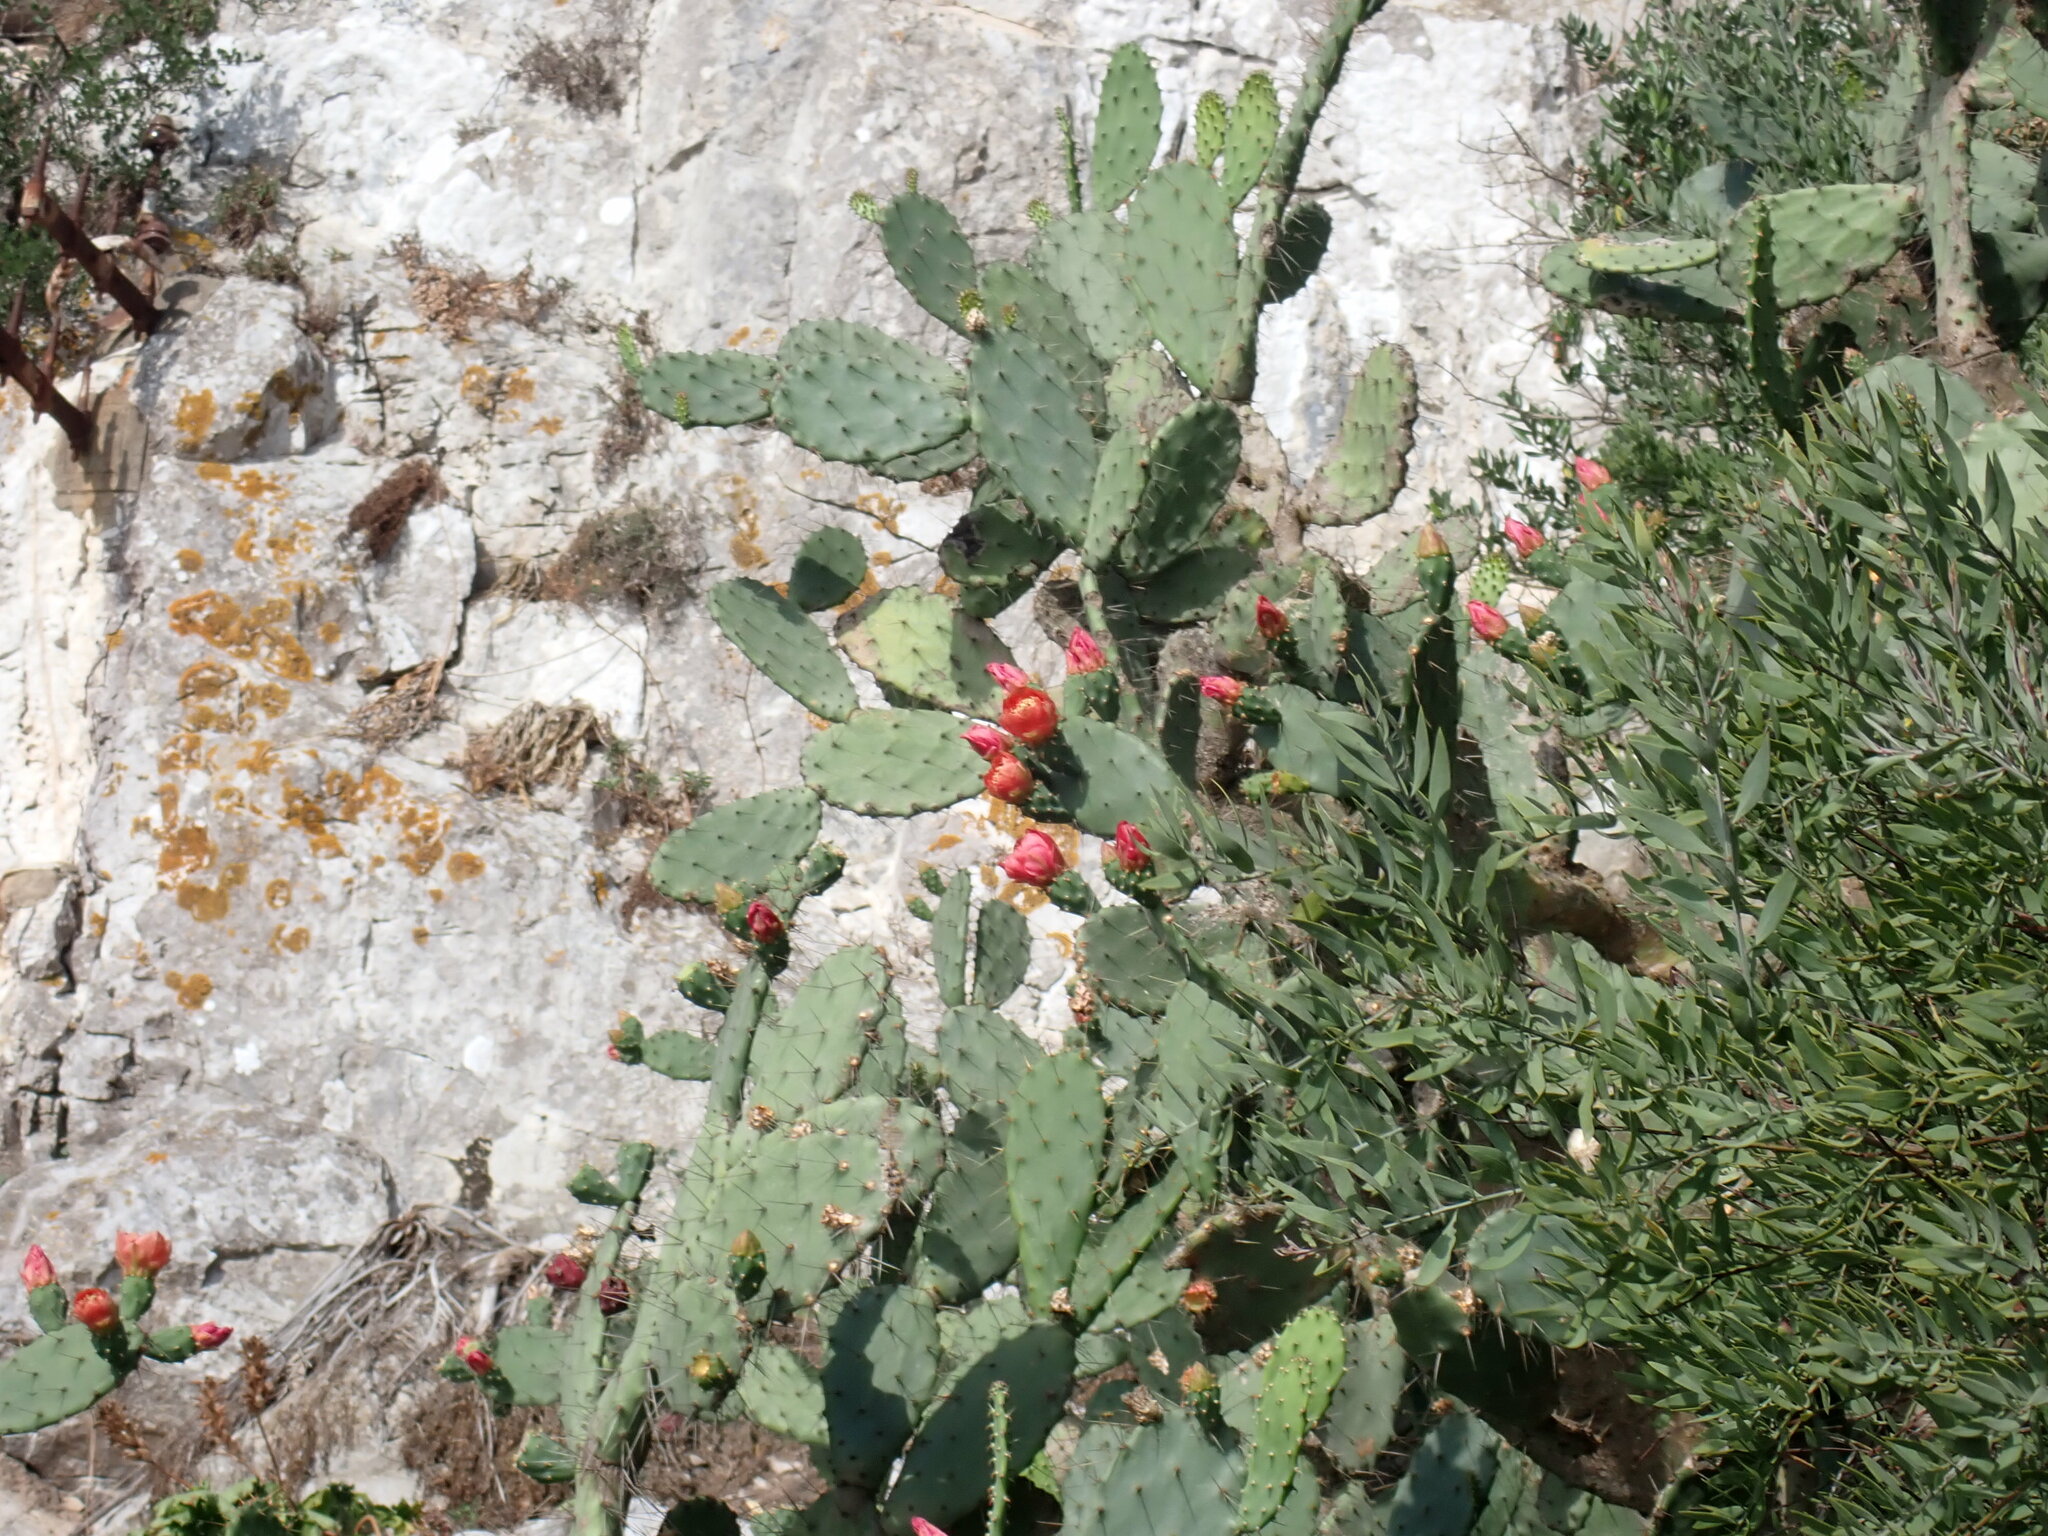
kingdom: Plantae
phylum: Tracheophyta
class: Magnoliopsida
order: Caryophyllales
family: Cactaceae
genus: Opuntia
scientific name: Opuntia elatior
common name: Tuna
